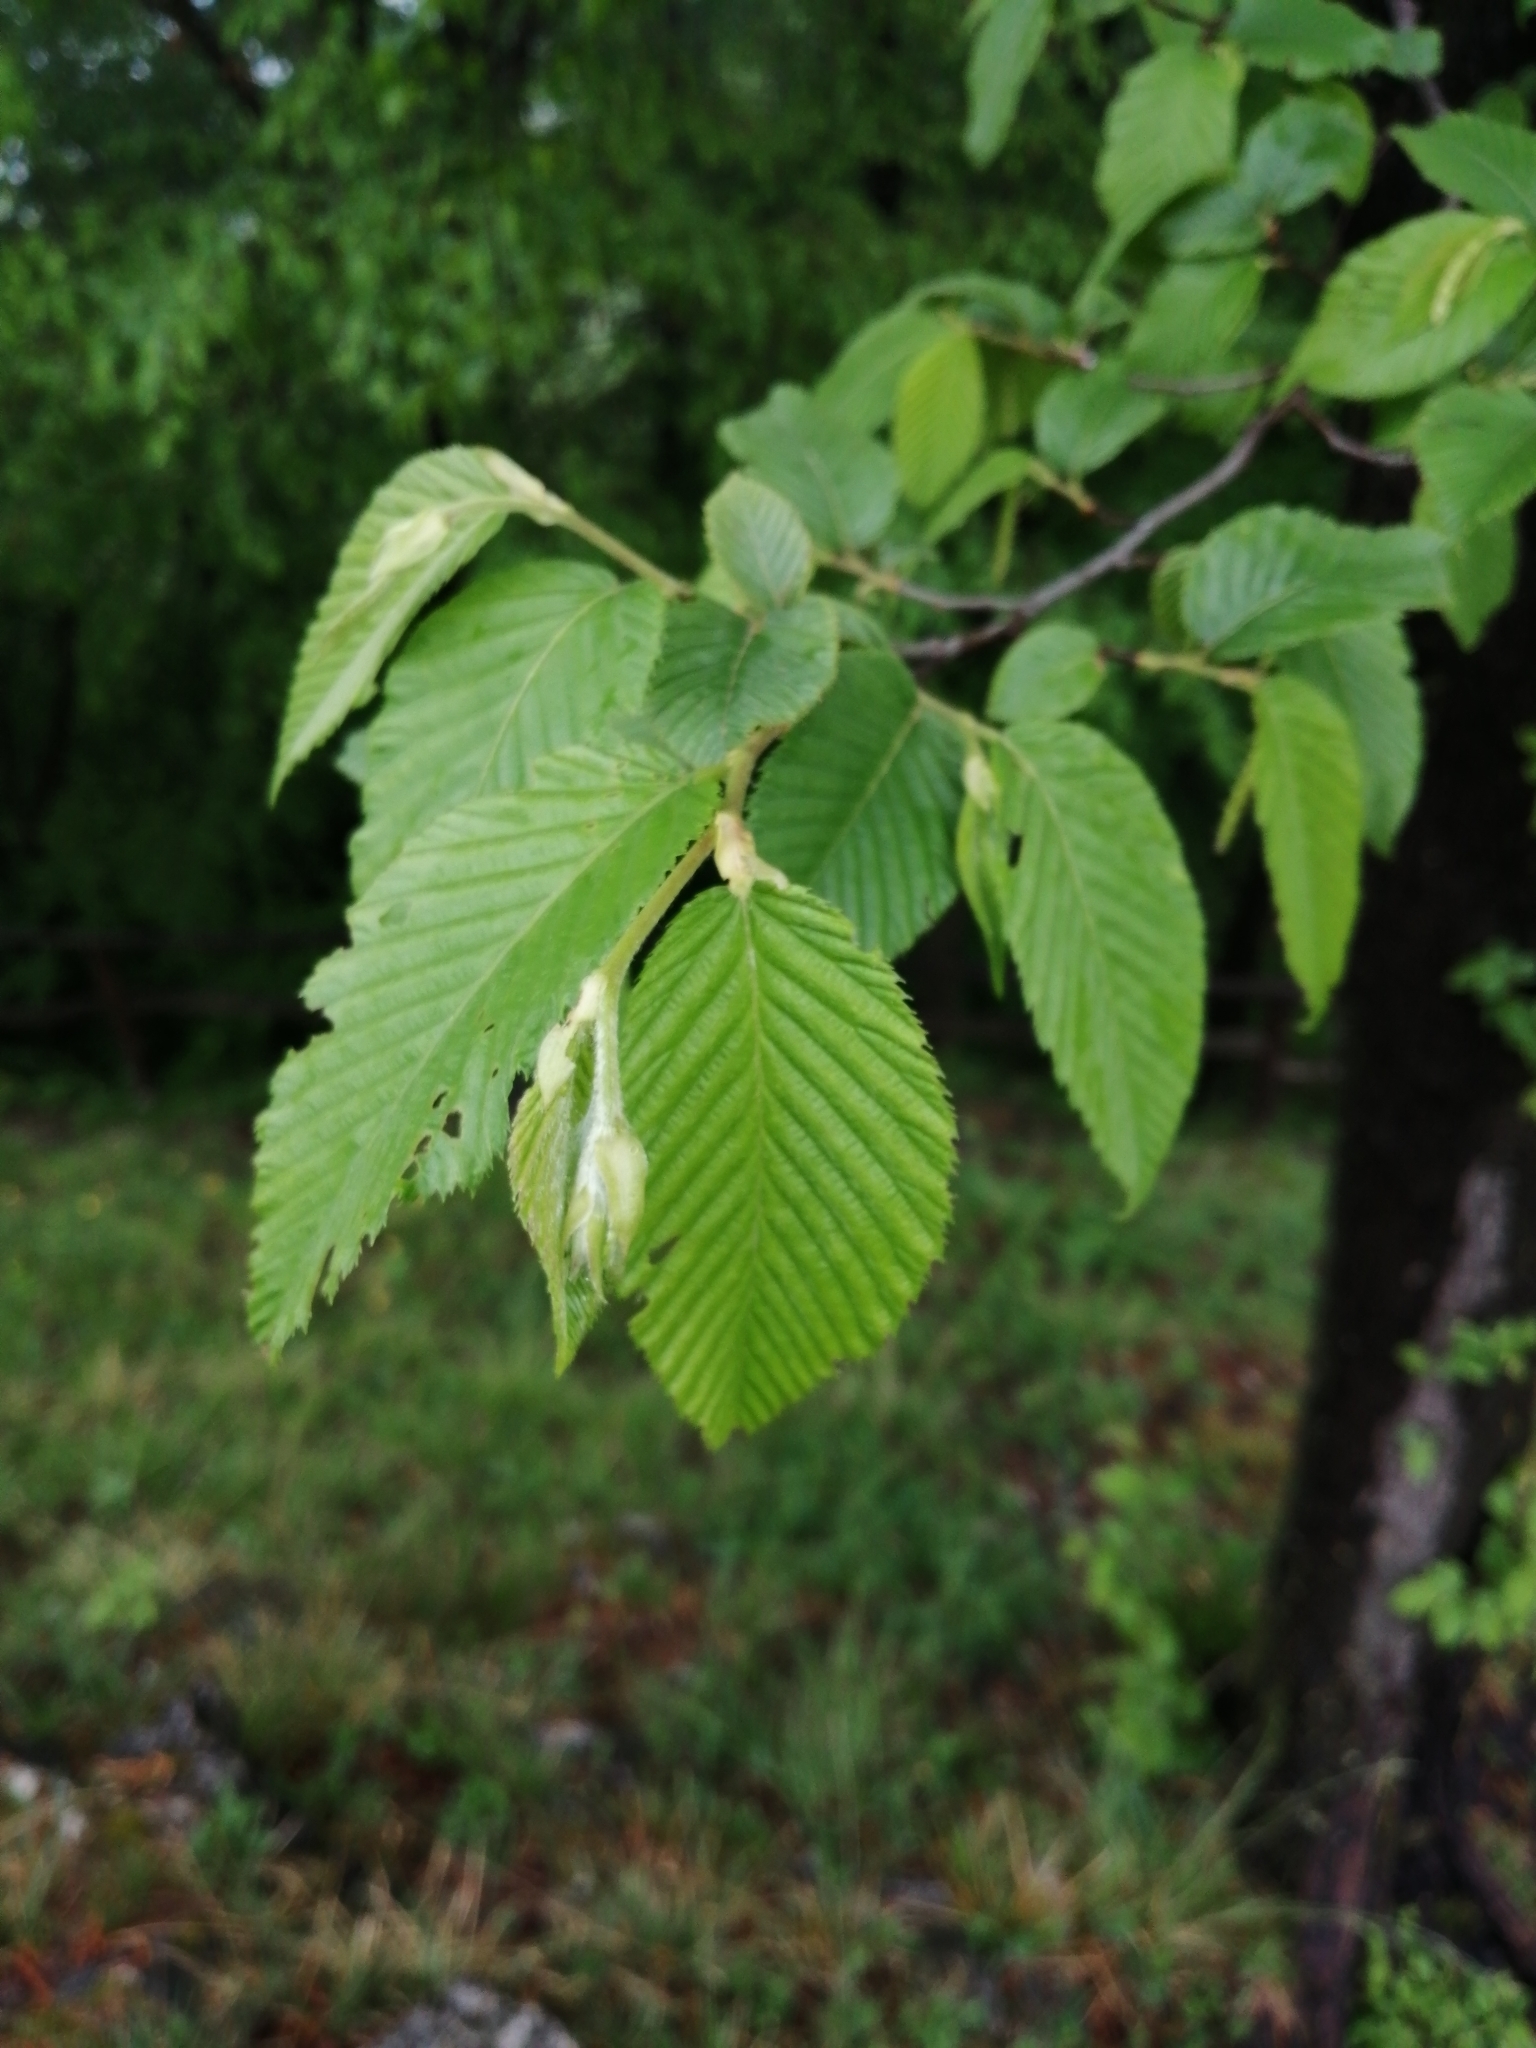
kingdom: Plantae
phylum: Tracheophyta
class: Magnoliopsida
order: Fagales
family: Betulaceae
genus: Ostrya
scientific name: Ostrya carpinifolia
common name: European hop-hornbeam
